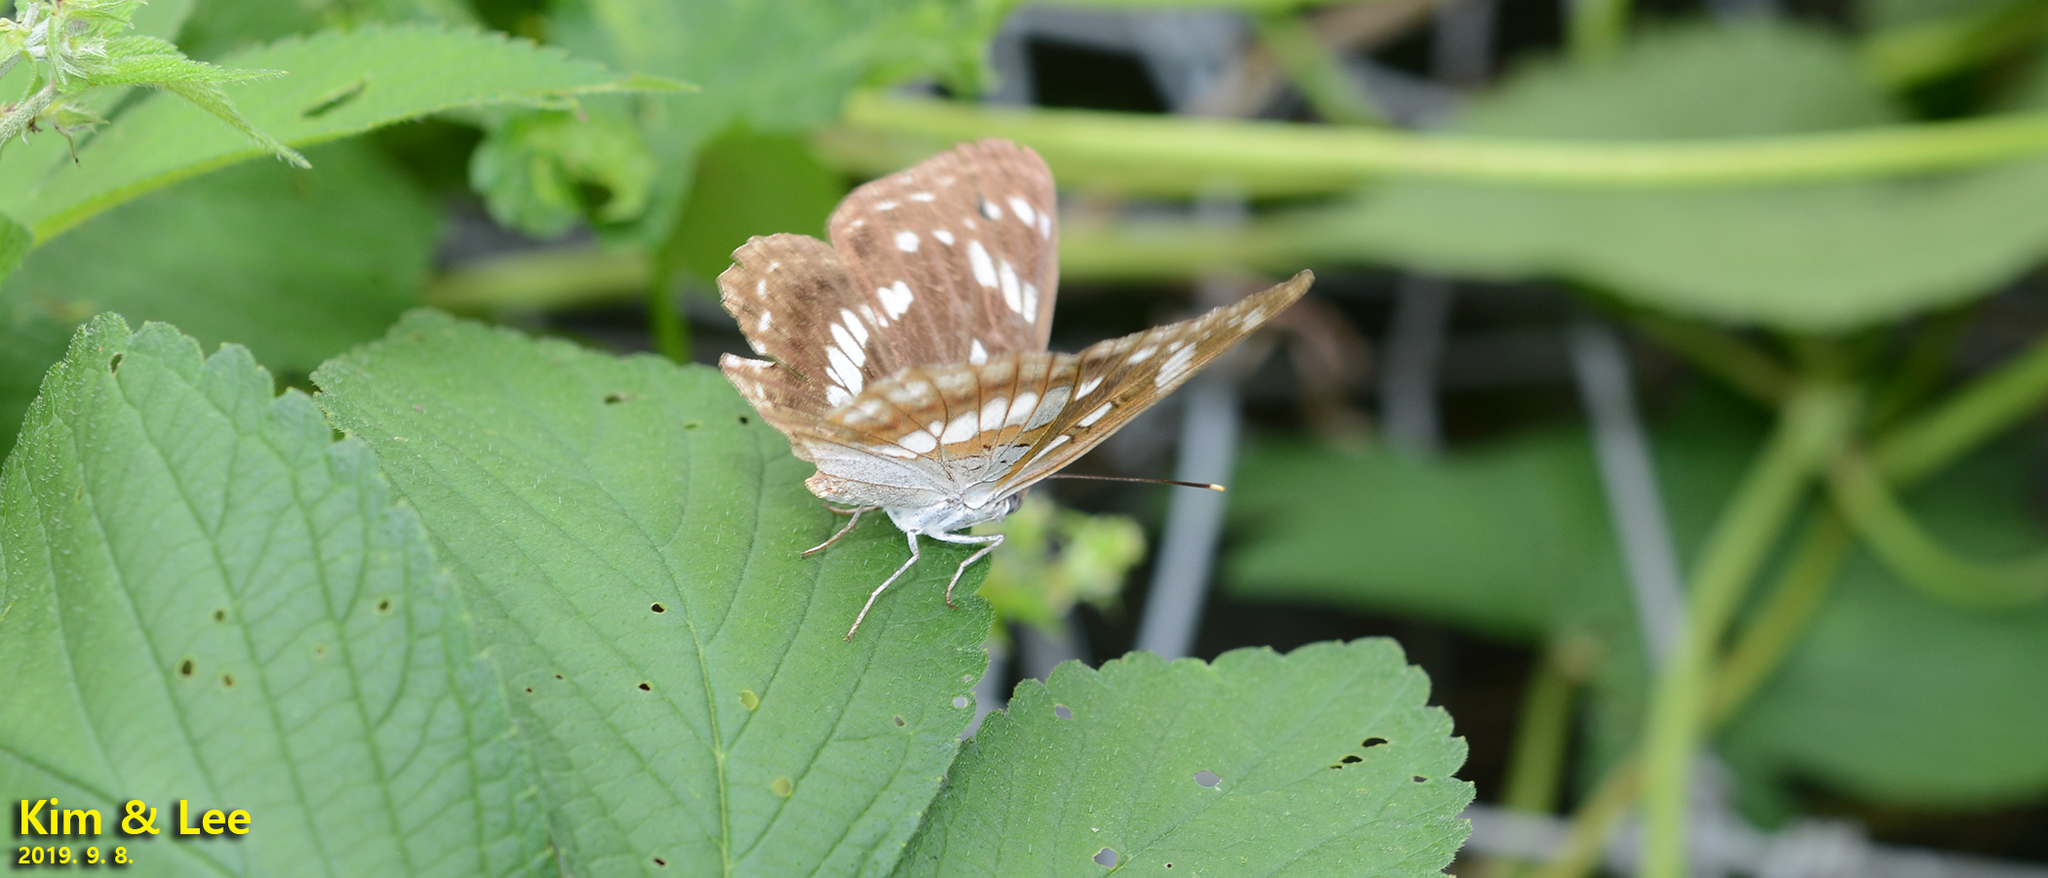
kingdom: Animalia
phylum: Arthropoda
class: Insecta
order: Lepidoptera
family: Nymphalidae
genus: Limenitis
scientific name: Limenitis helmanni
